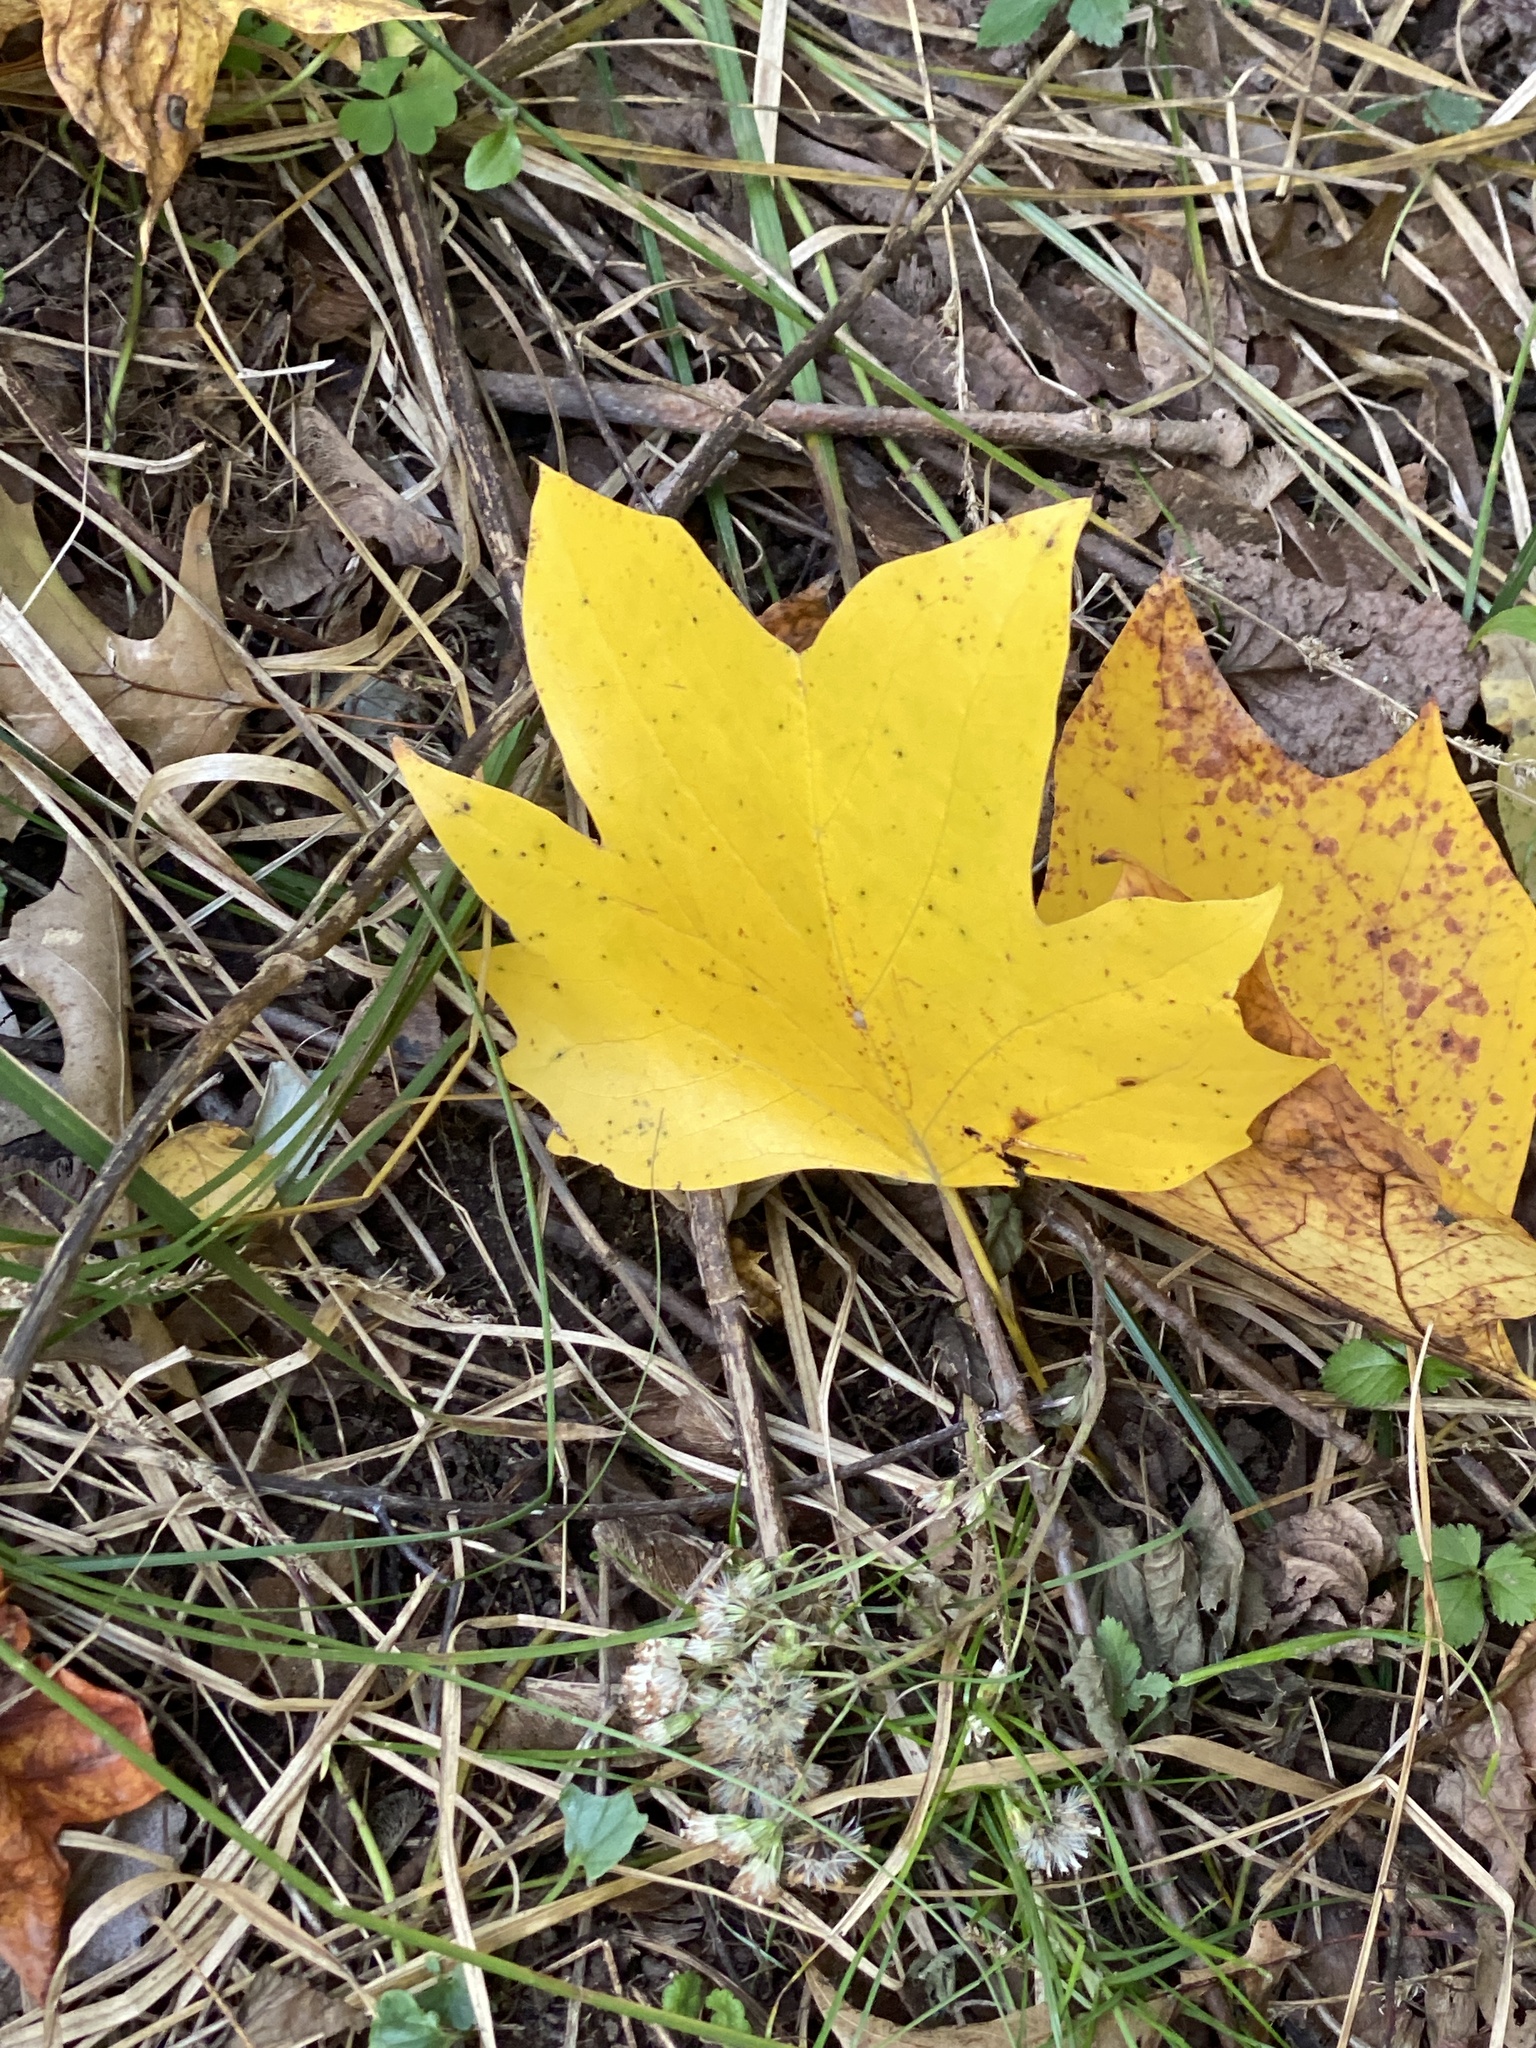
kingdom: Plantae
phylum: Tracheophyta
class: Magnoliopsida
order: Magnoliales
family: Magnoliaceae
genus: Liriodendron
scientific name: Liriodendron tulipifera
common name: Tulip tree
